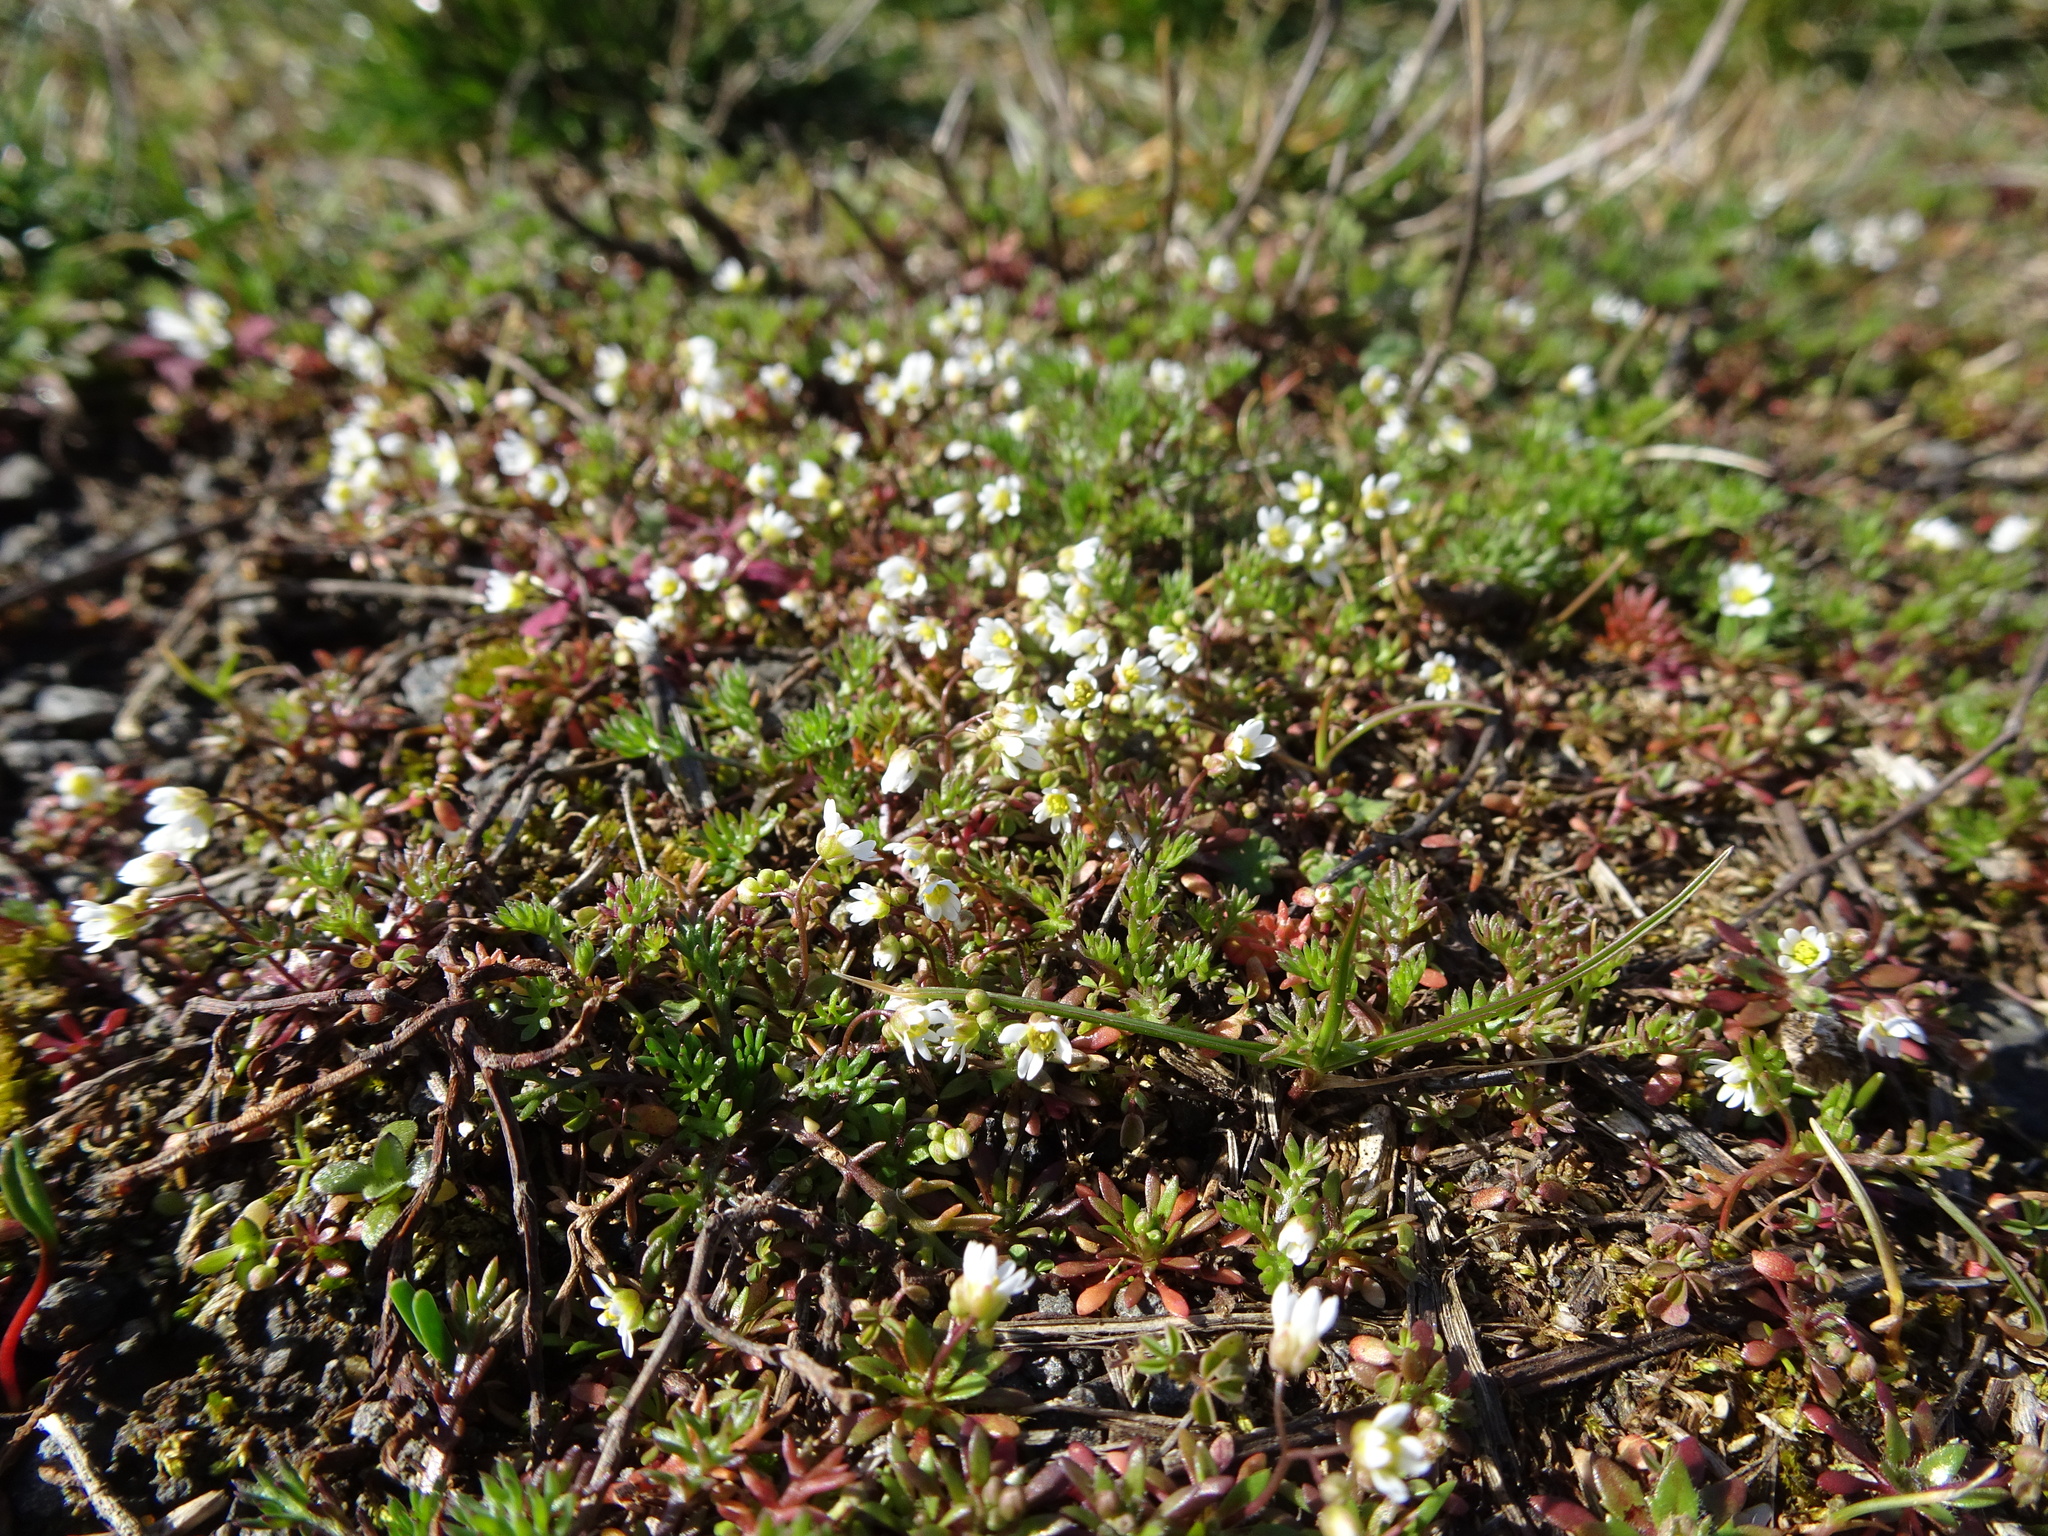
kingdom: Plantae
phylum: Tracheophyta
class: Magnoliopsida
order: Brassicales
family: Brassicaceae
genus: Draba
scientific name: Draba verna
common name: Spring draba
